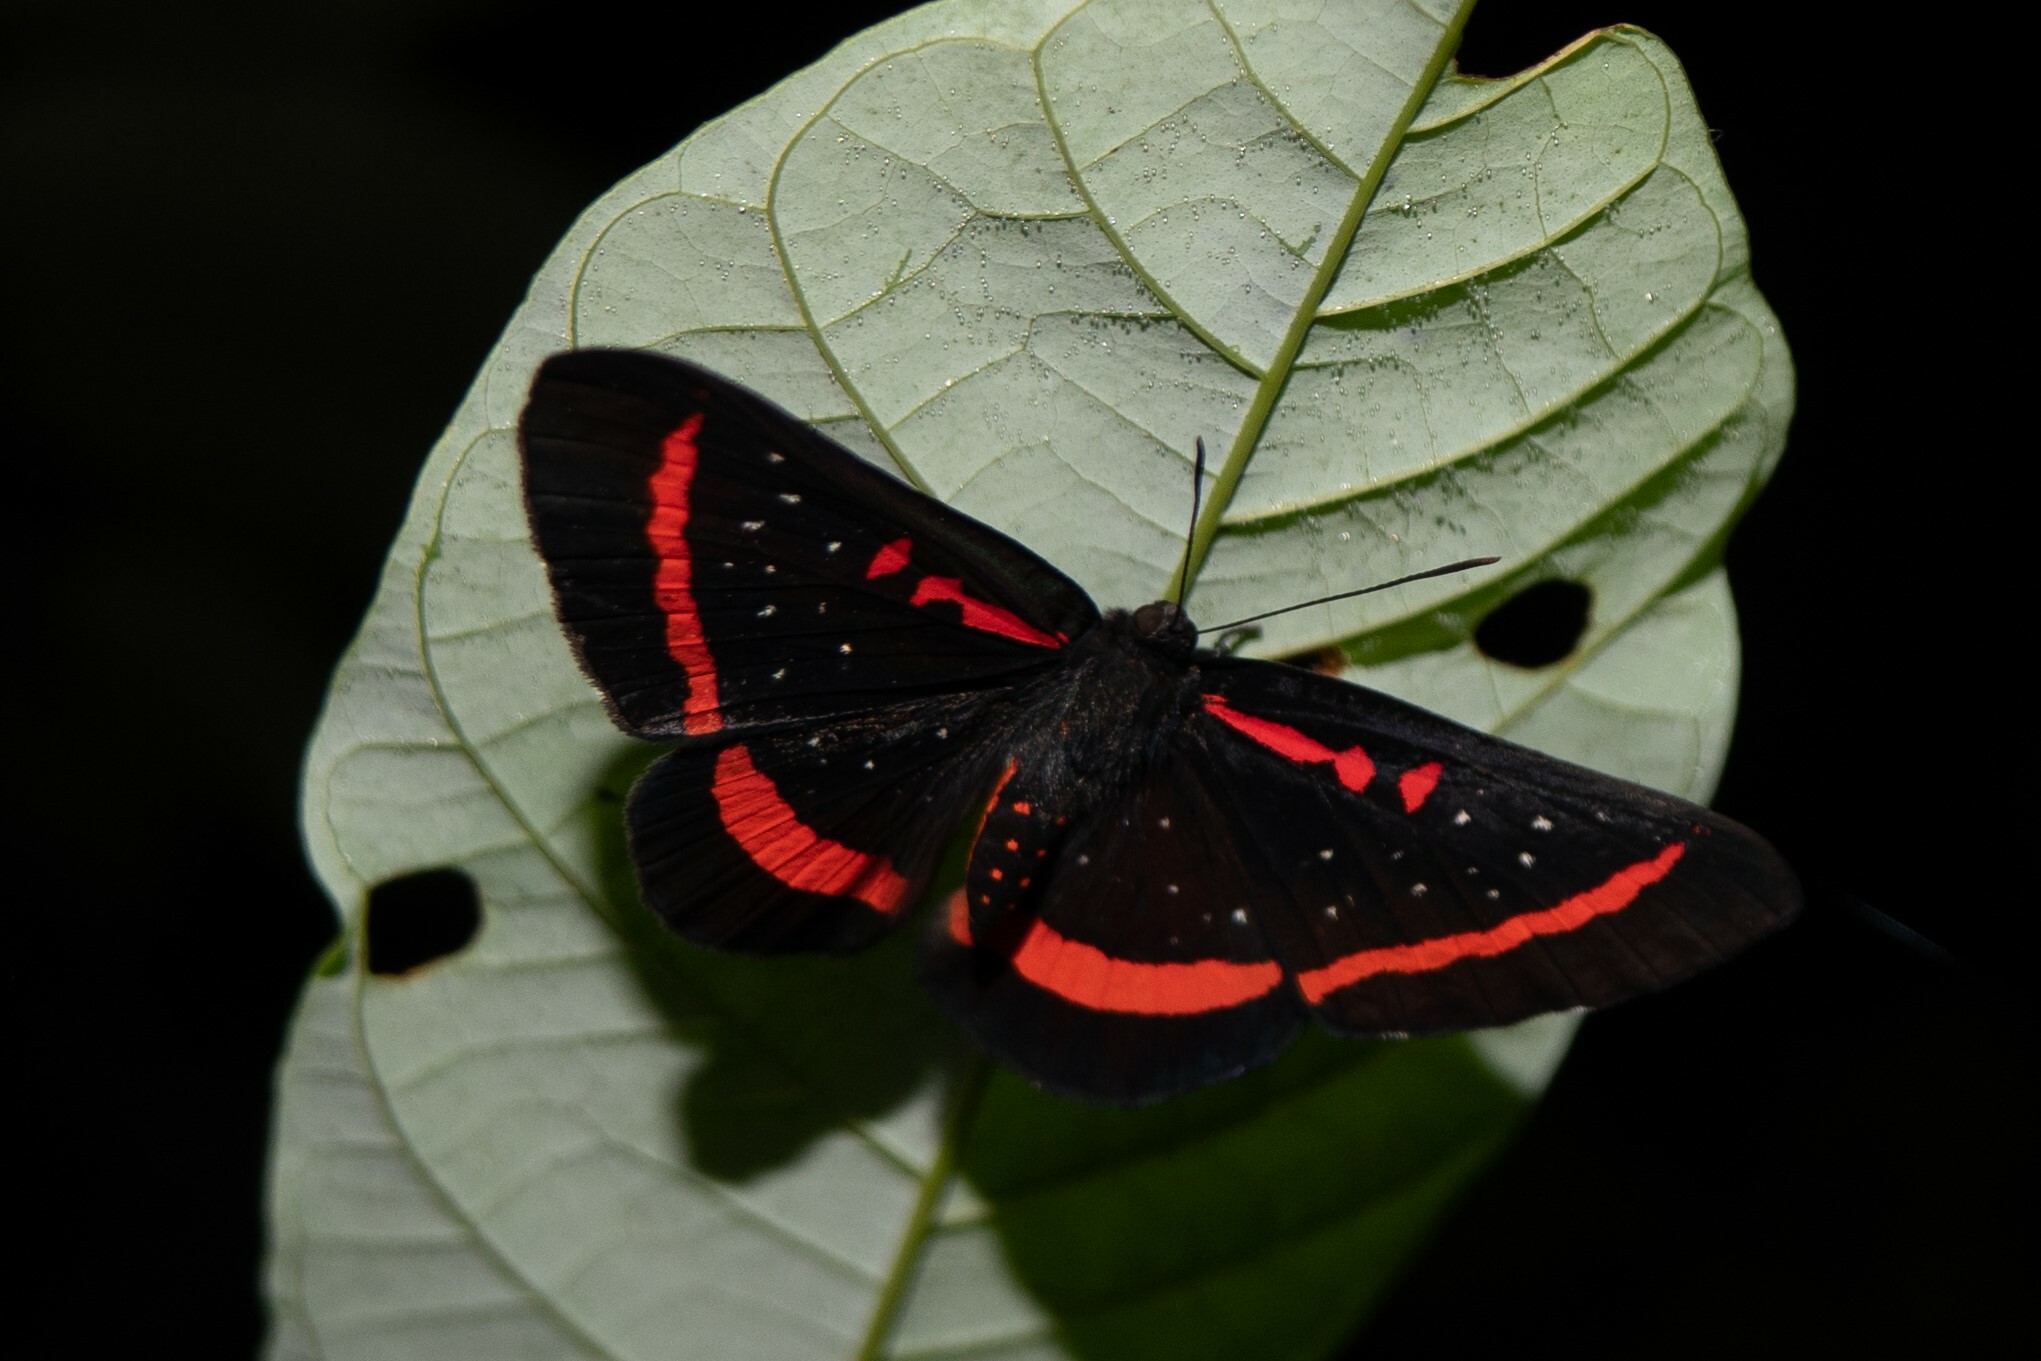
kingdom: Animalia
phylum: Arthropoda
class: Insecta
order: Lepidoptera
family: Riodinidae
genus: Amarynthis
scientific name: Amarynthis meneria
